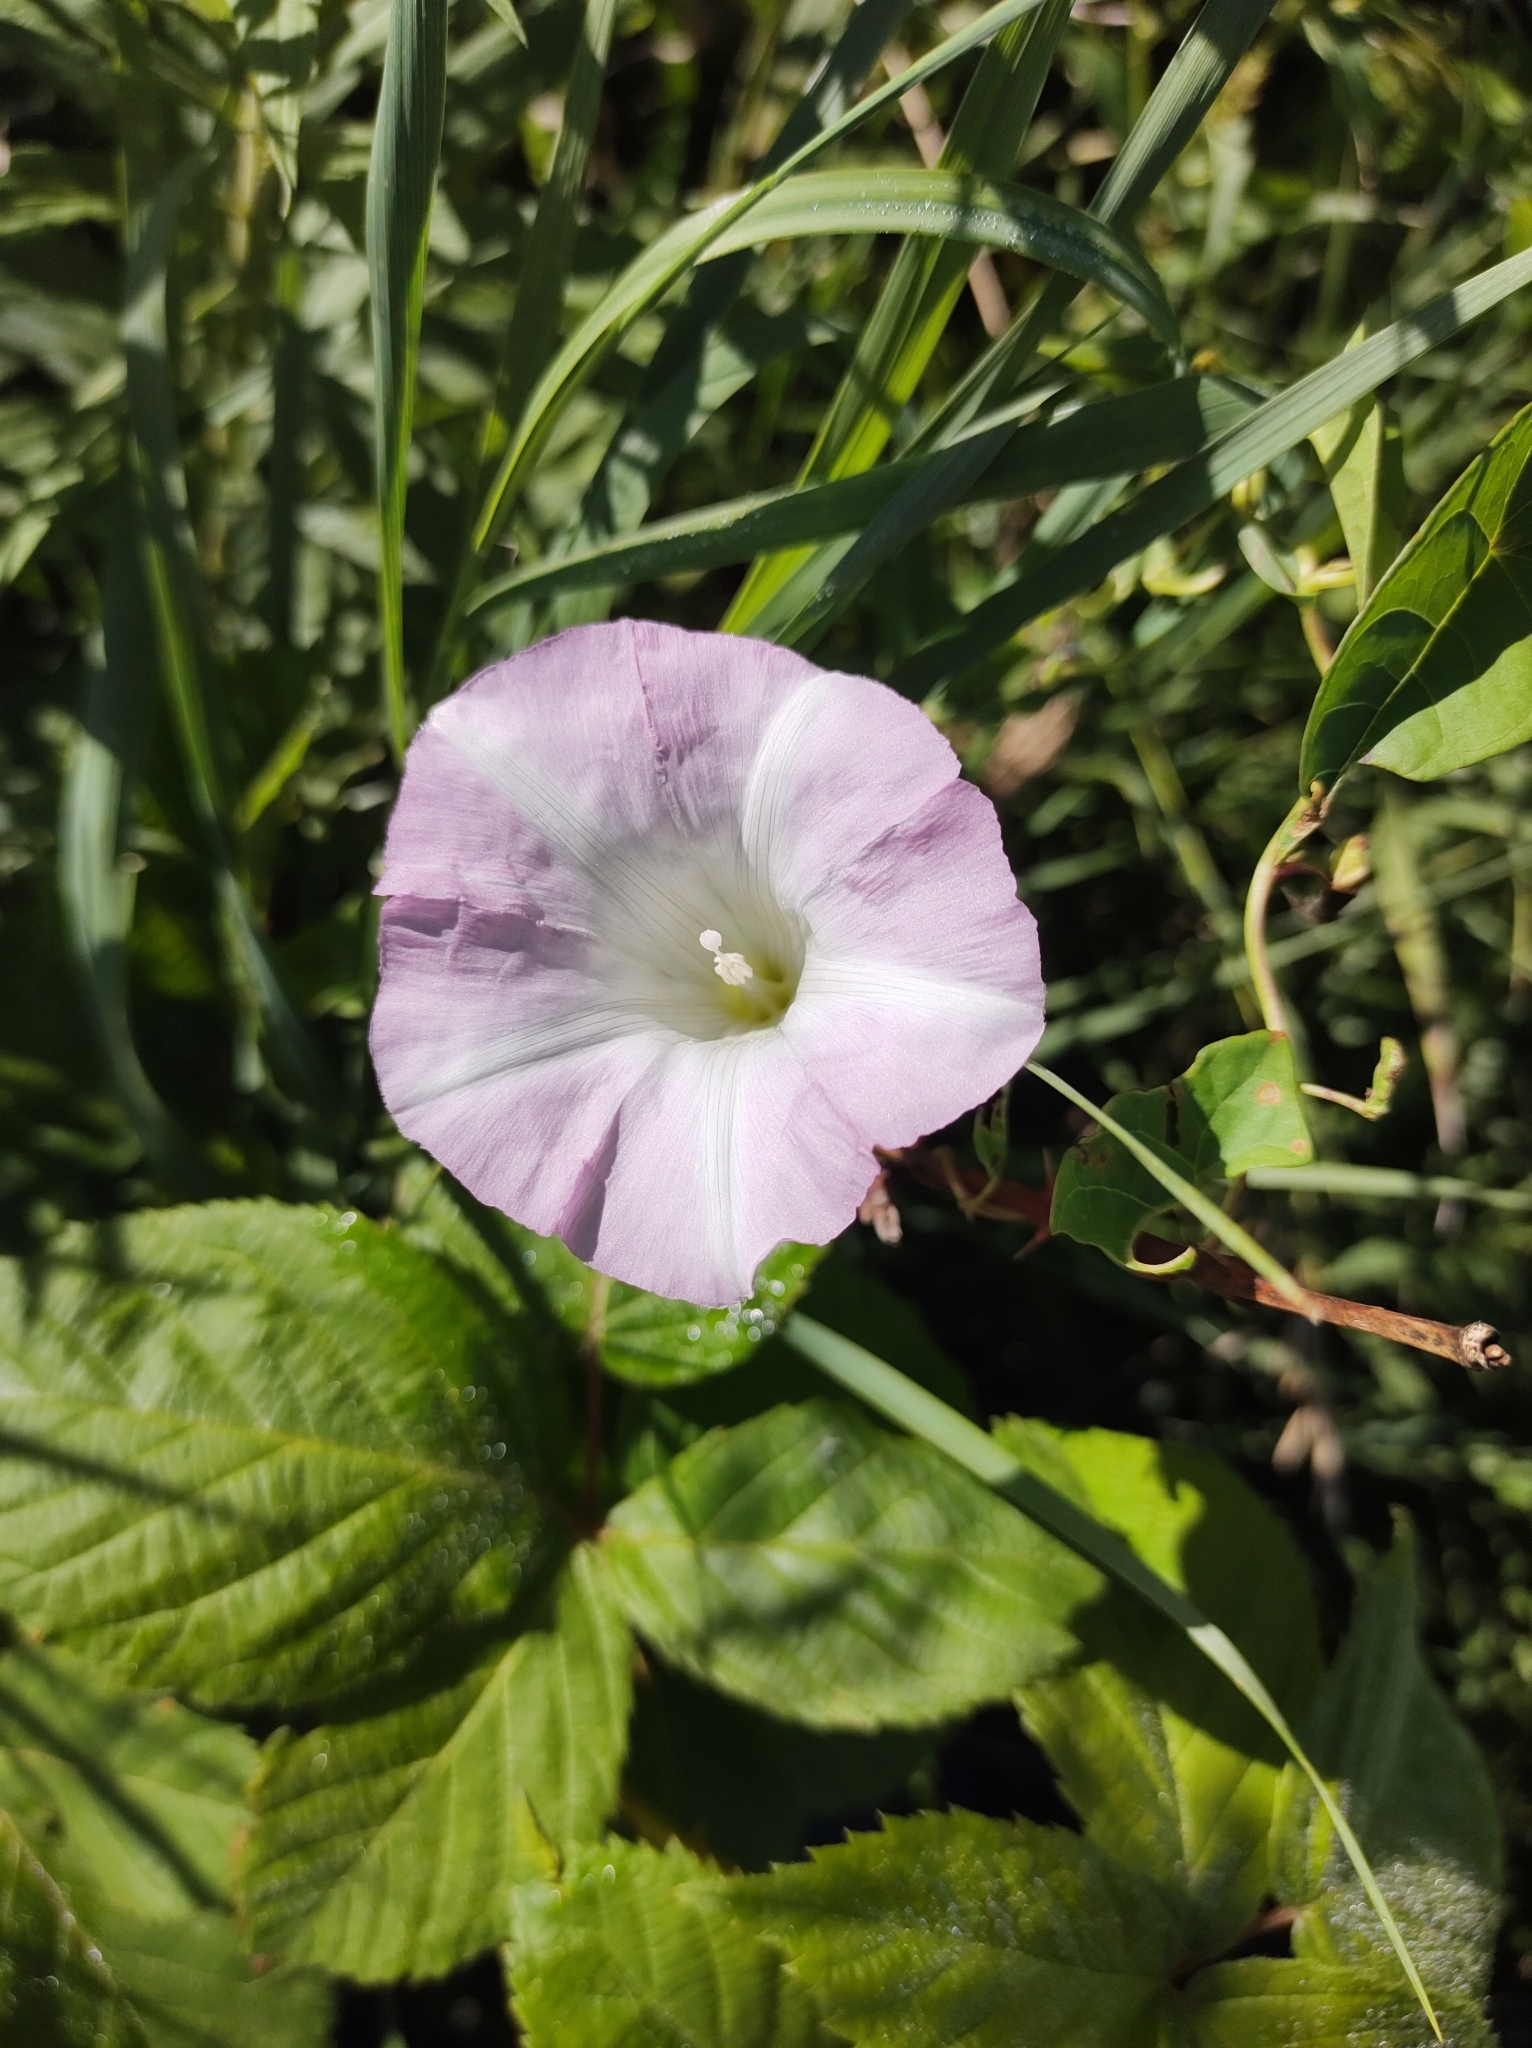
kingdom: Plantae
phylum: Tracheophyta
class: Magnoliopsida
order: Solanales
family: Convolvulaceae
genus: Calystegia
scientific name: Calystegia sepium
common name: Hedge bindweed
